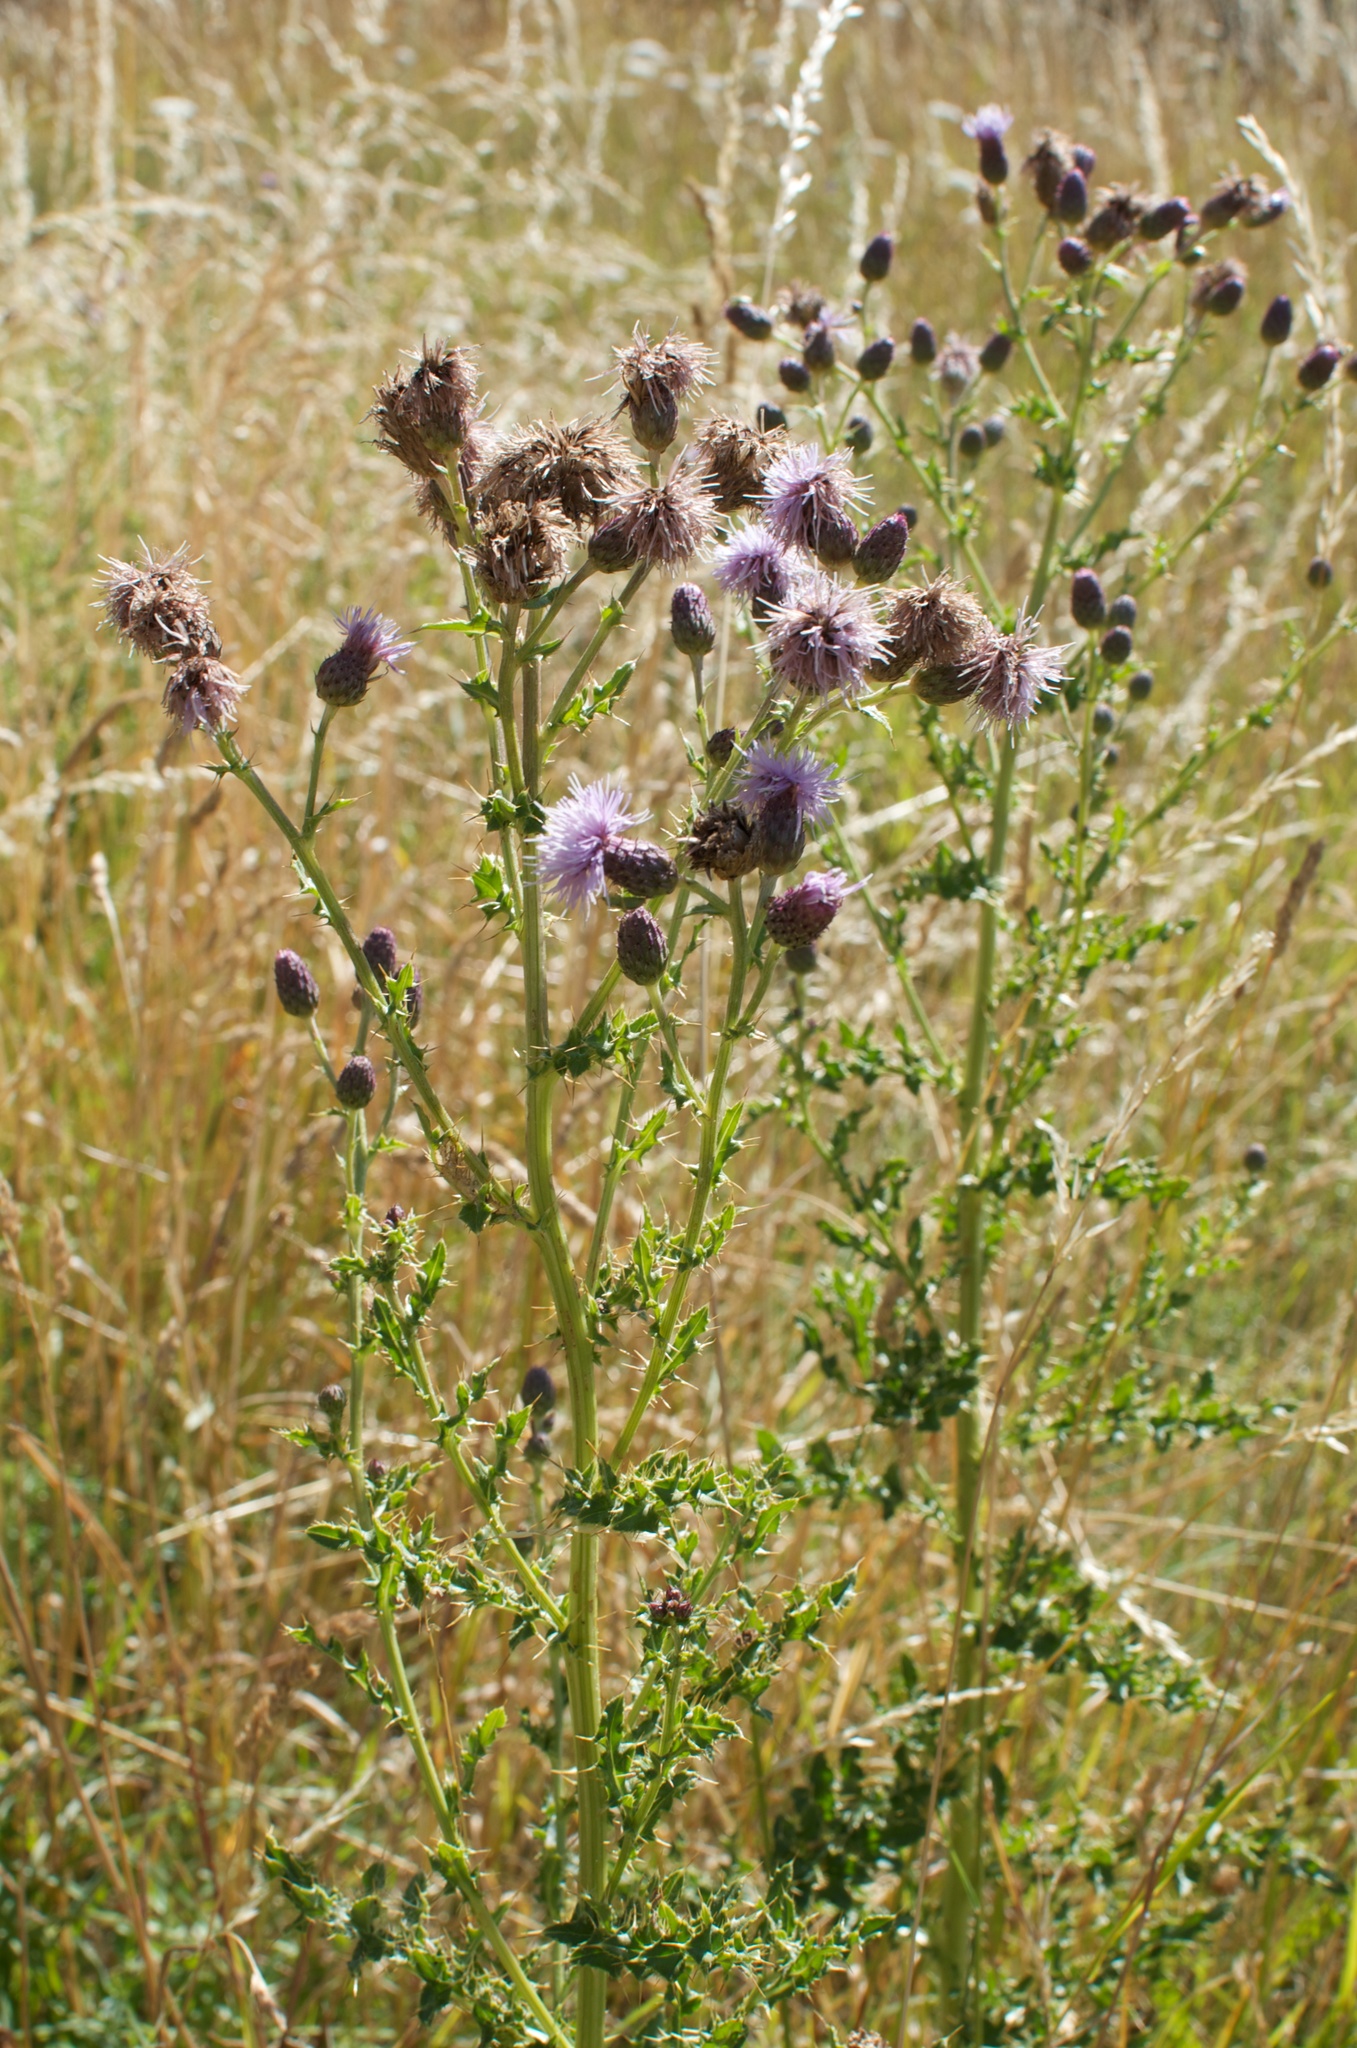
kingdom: Plantae
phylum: Tracheophyta
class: Magnoliopsida
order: Asterales
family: Asteraceae
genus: Cirsium
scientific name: Cirsium arvense
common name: Creeping thistle
